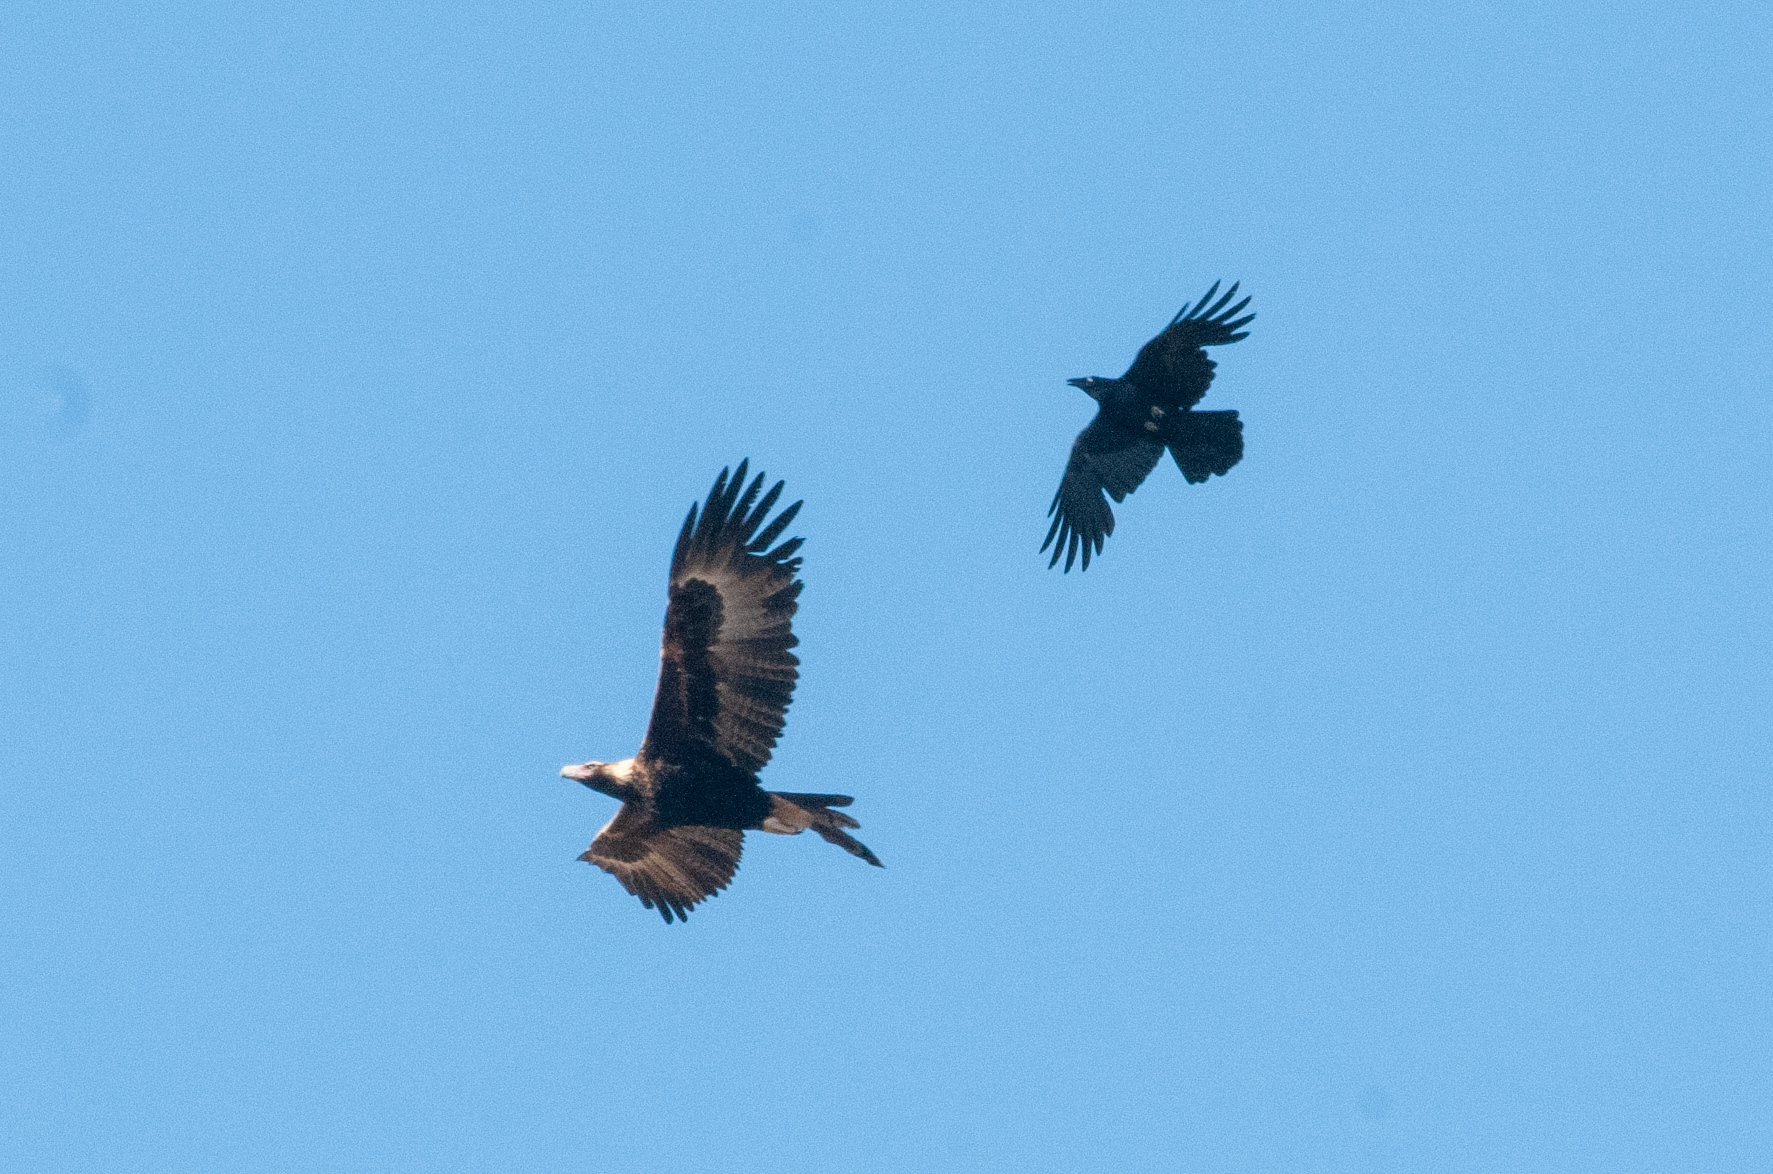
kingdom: Animalia
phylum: Chordata
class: Aves
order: Accipitriformes
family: Accipitridae
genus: Aquila
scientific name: Aquila audax
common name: Wedge-tailed eagle
